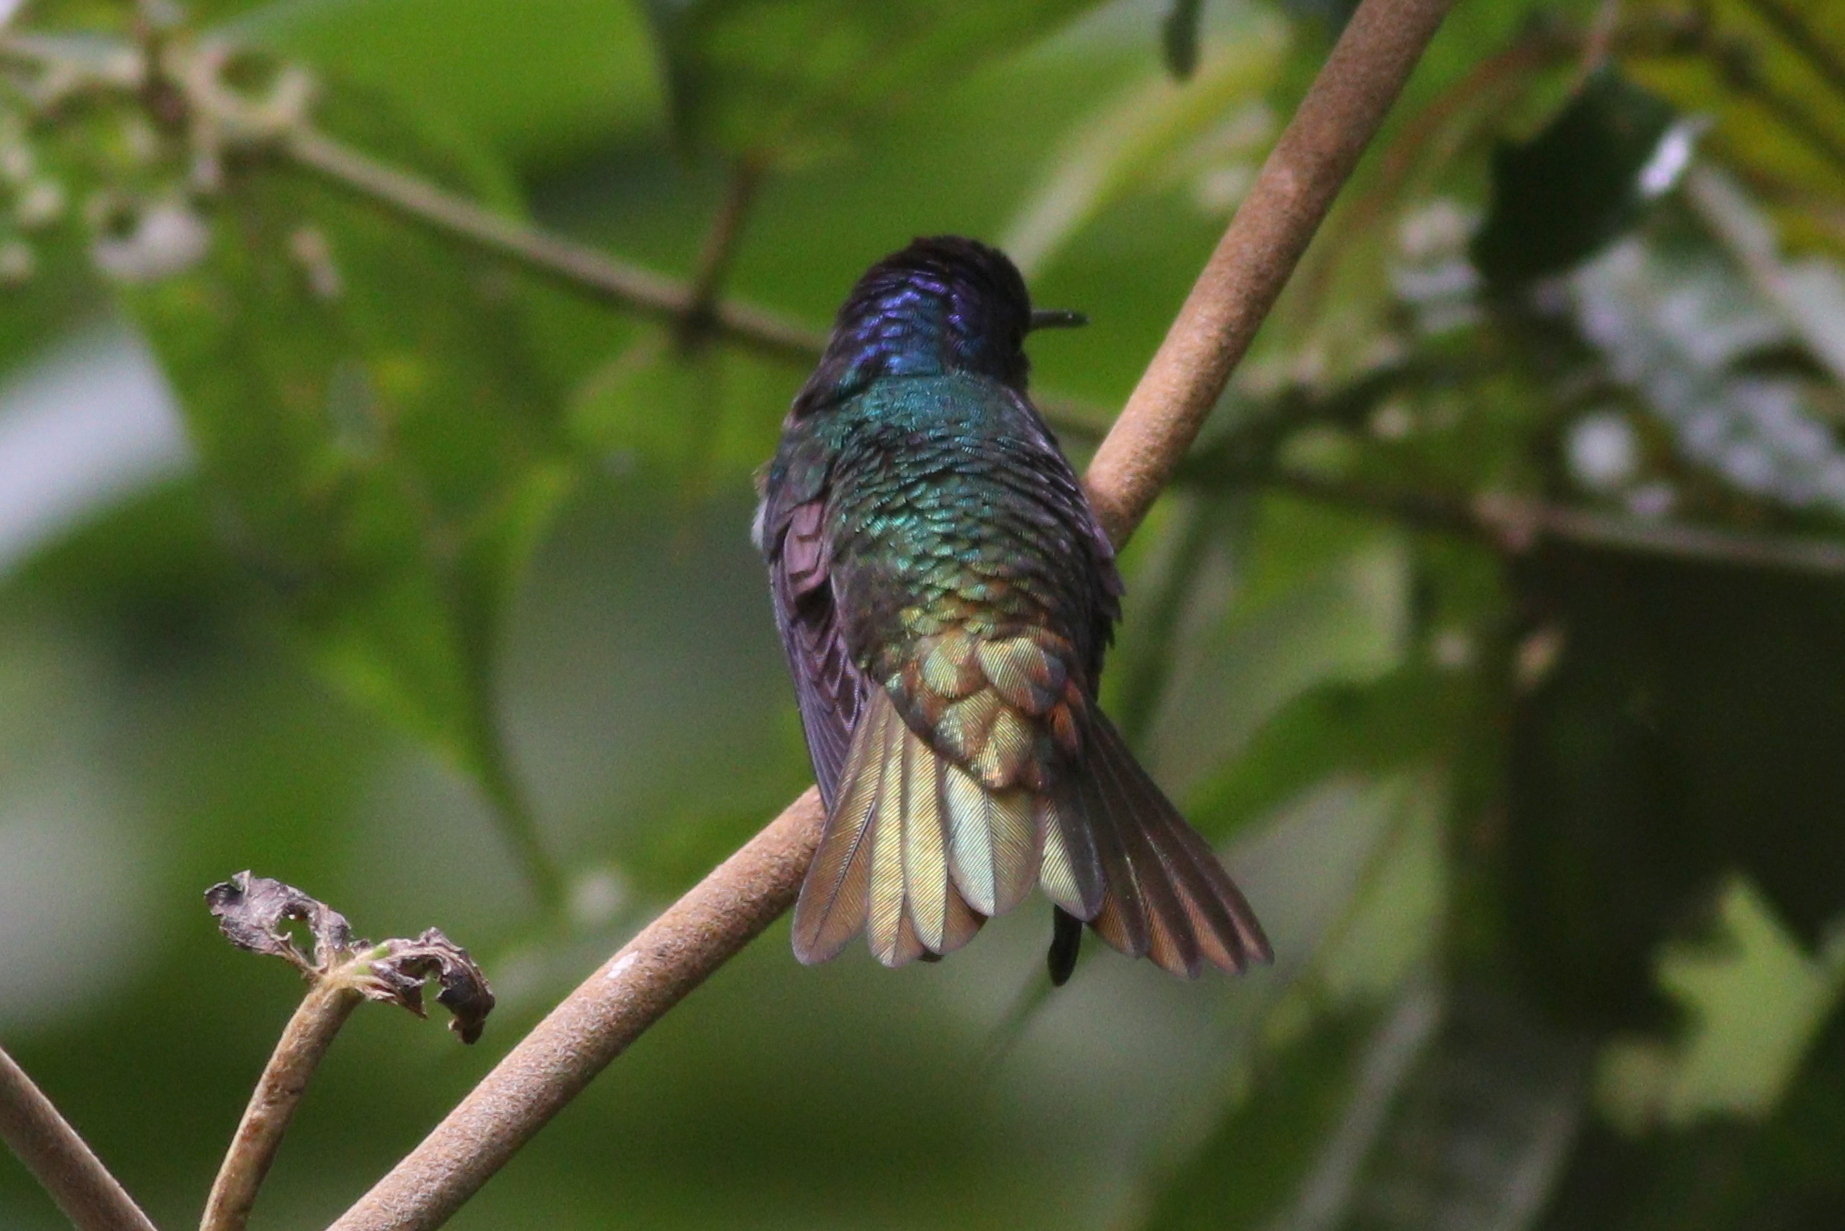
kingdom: Animalia
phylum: Chordata
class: Aves
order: Apodiformes
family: Trochilidae
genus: Chrysuronia
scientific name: Chrysuronia oenone
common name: Golden-tailed sapphire
